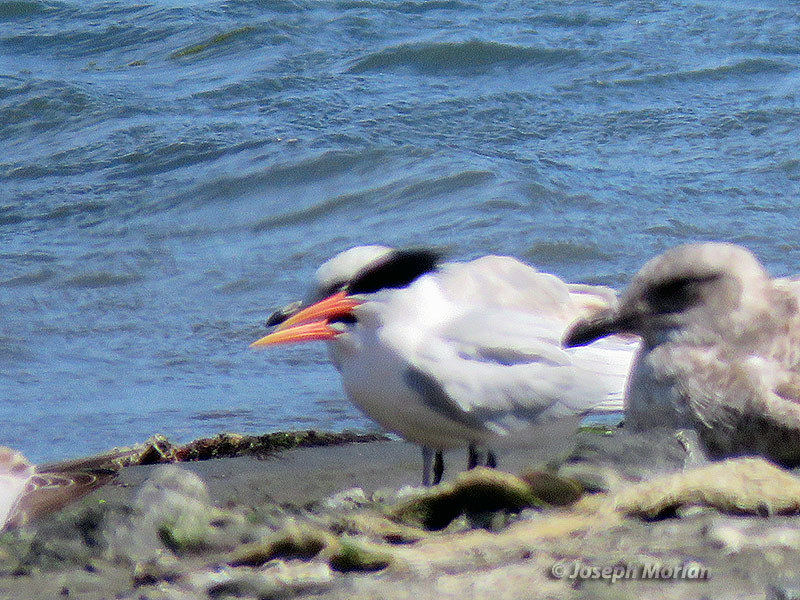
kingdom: Animalia
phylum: Chordata
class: Aves
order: Charadriiformes
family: Laridae
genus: Thalasseus
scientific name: Thalasseus elegans
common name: Elegant tern
